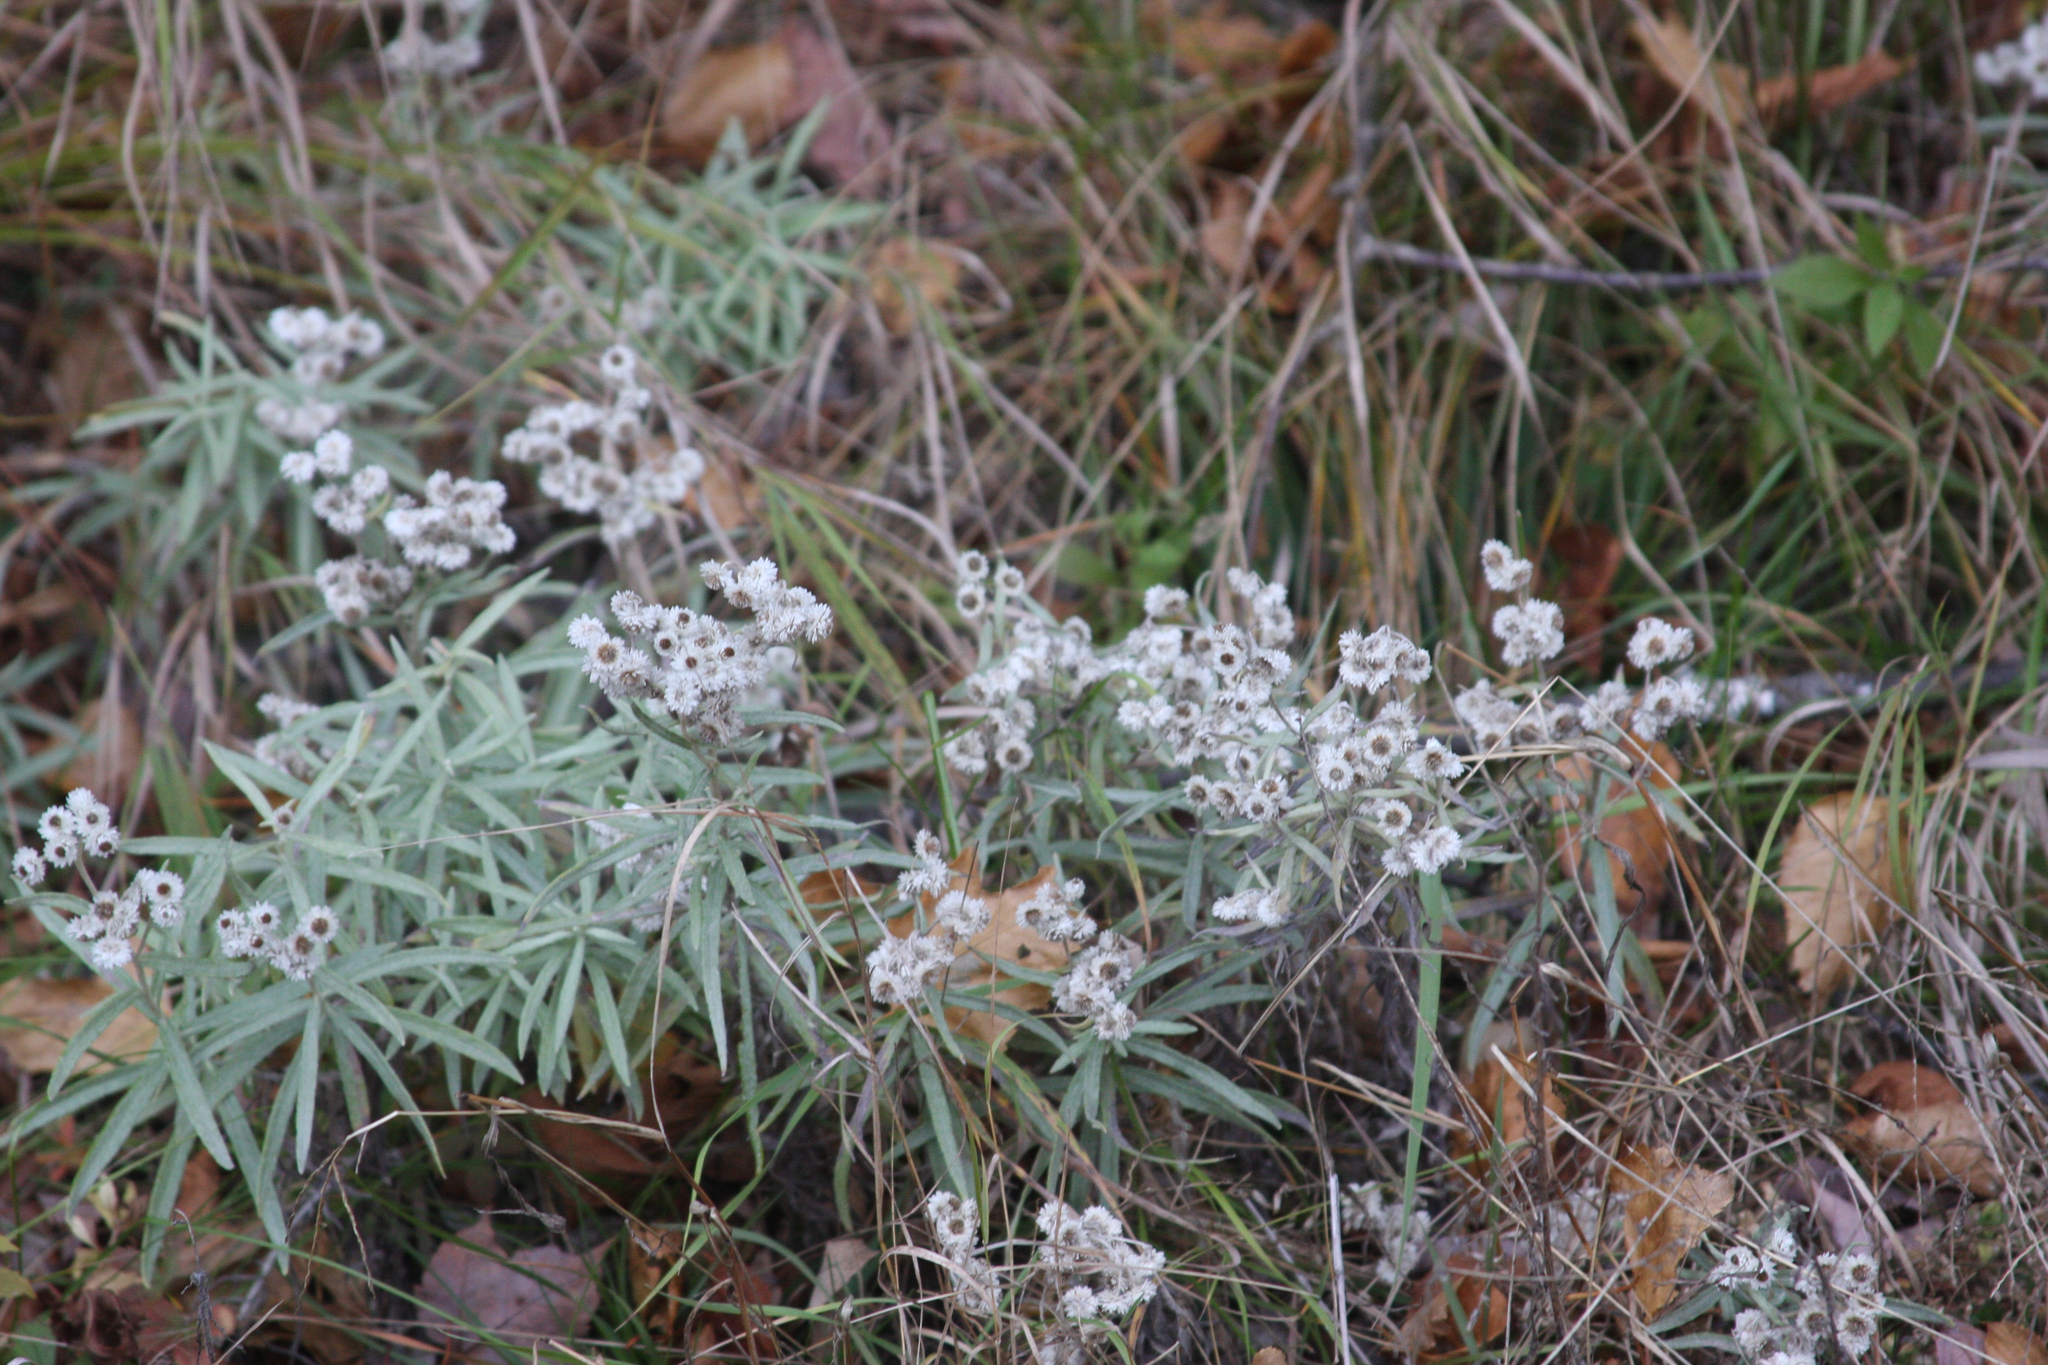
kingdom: Plantae
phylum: Tracheophyta
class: Magnoliopsida
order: Asterales
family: Asteraceae
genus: Anaphalis
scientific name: Anaphalis margaritacea
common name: Pearly everlasting
